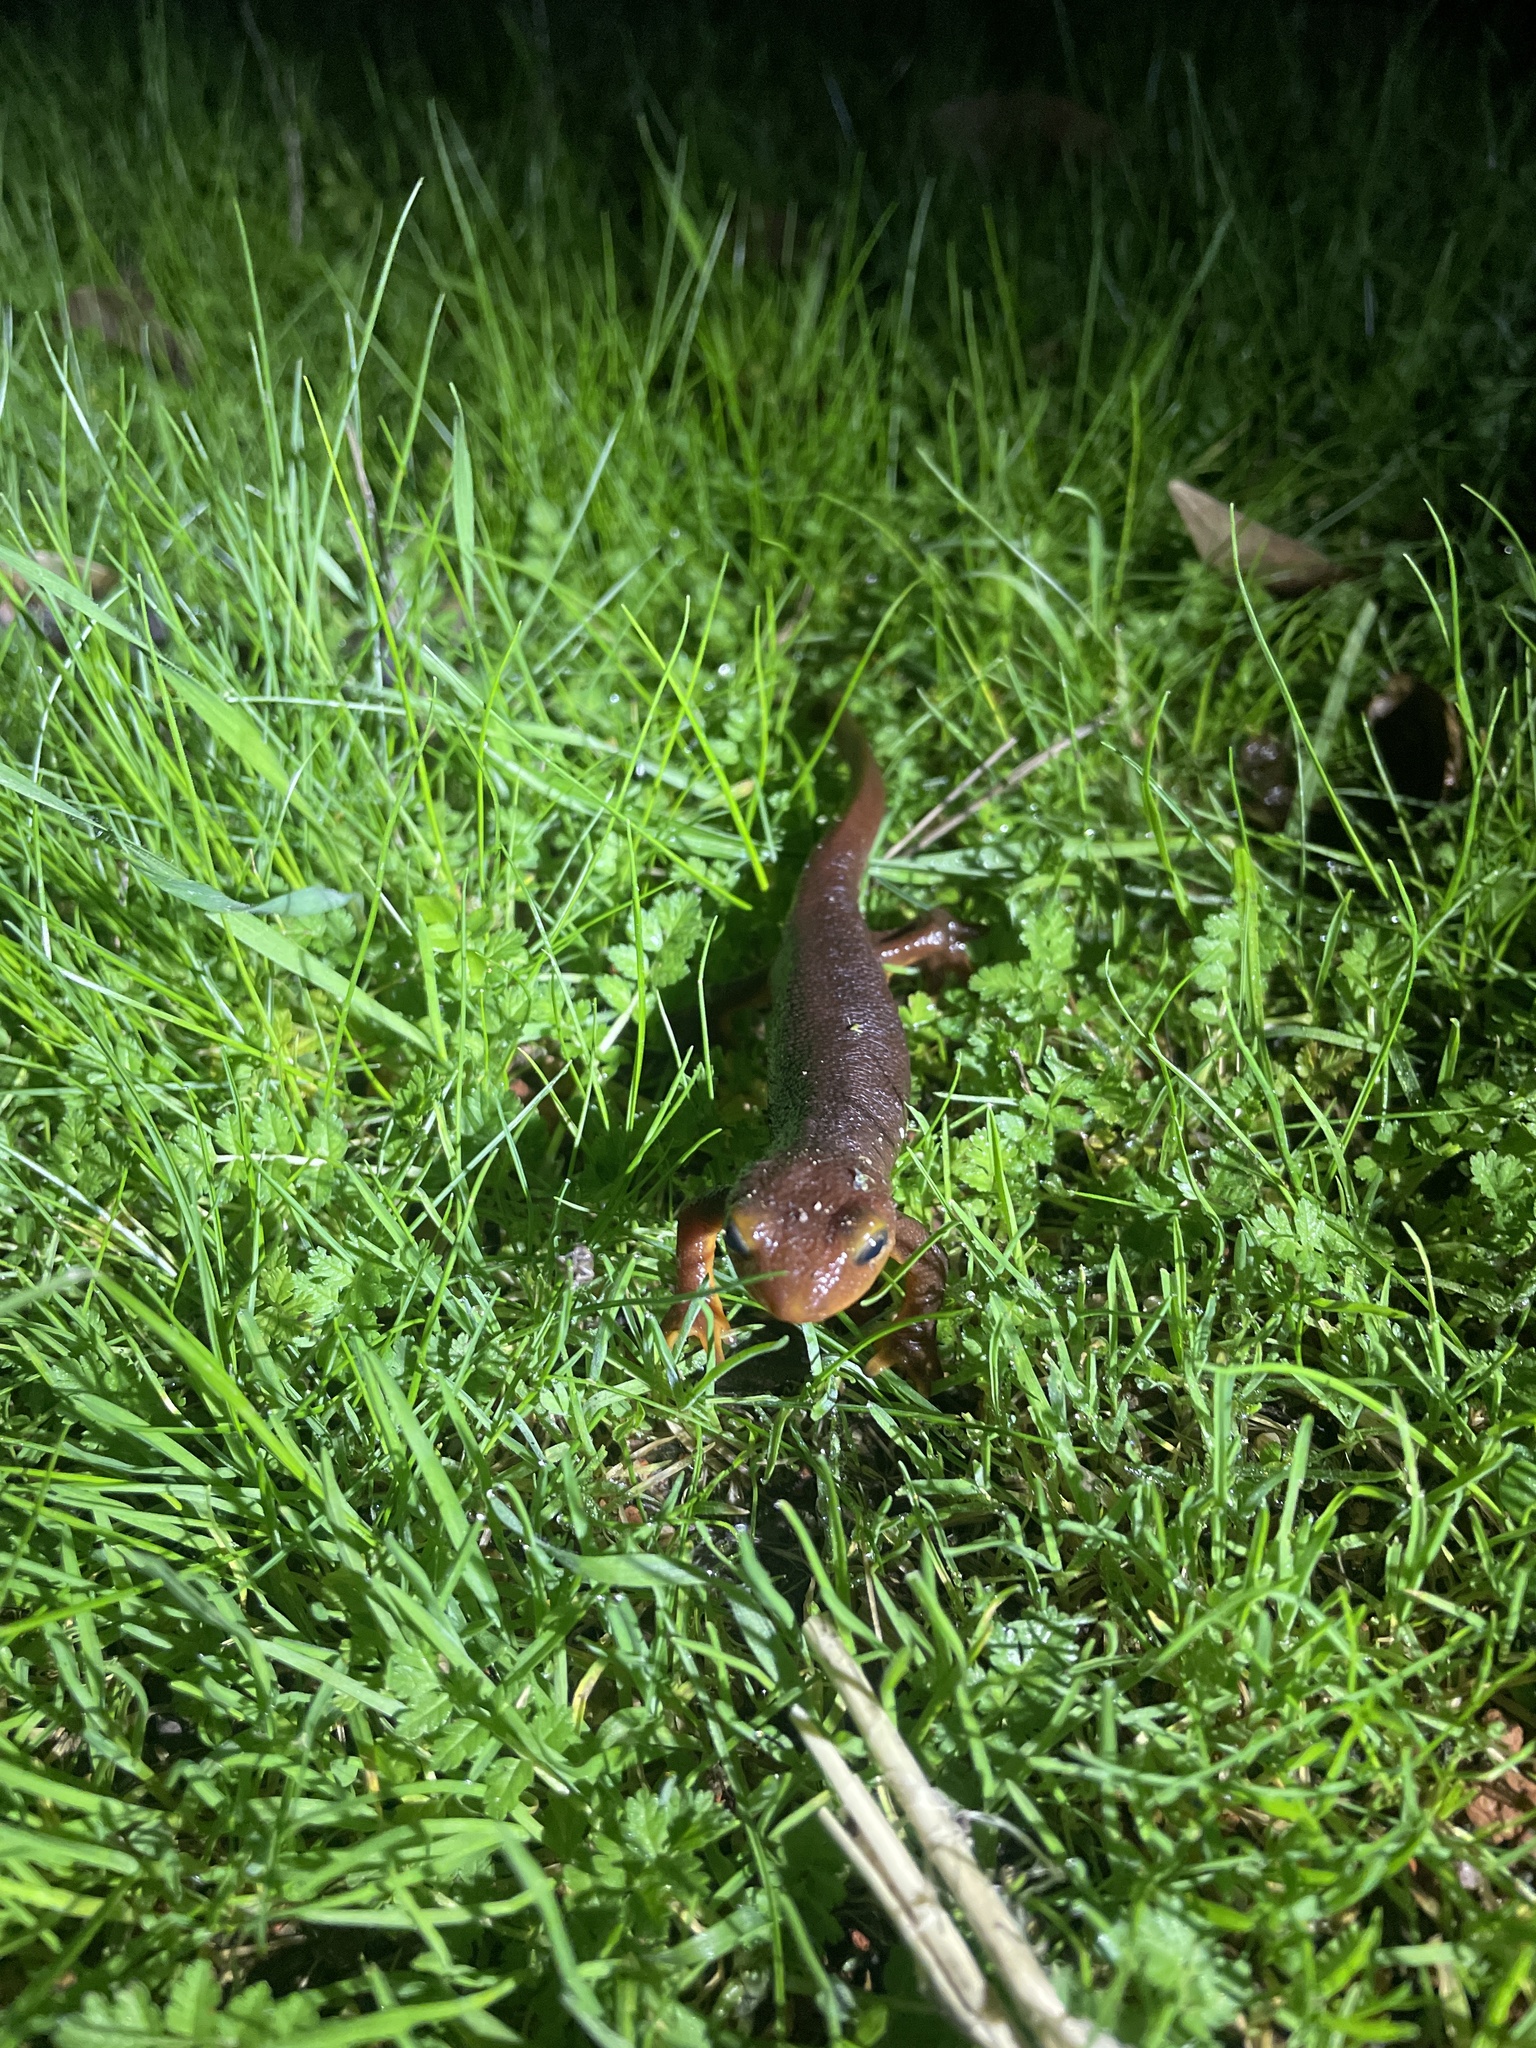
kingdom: Animalia
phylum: Chordata
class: Amphibia
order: Caudata
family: Salamandridae
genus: Taricha
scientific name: Taricha torosa
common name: California newt
